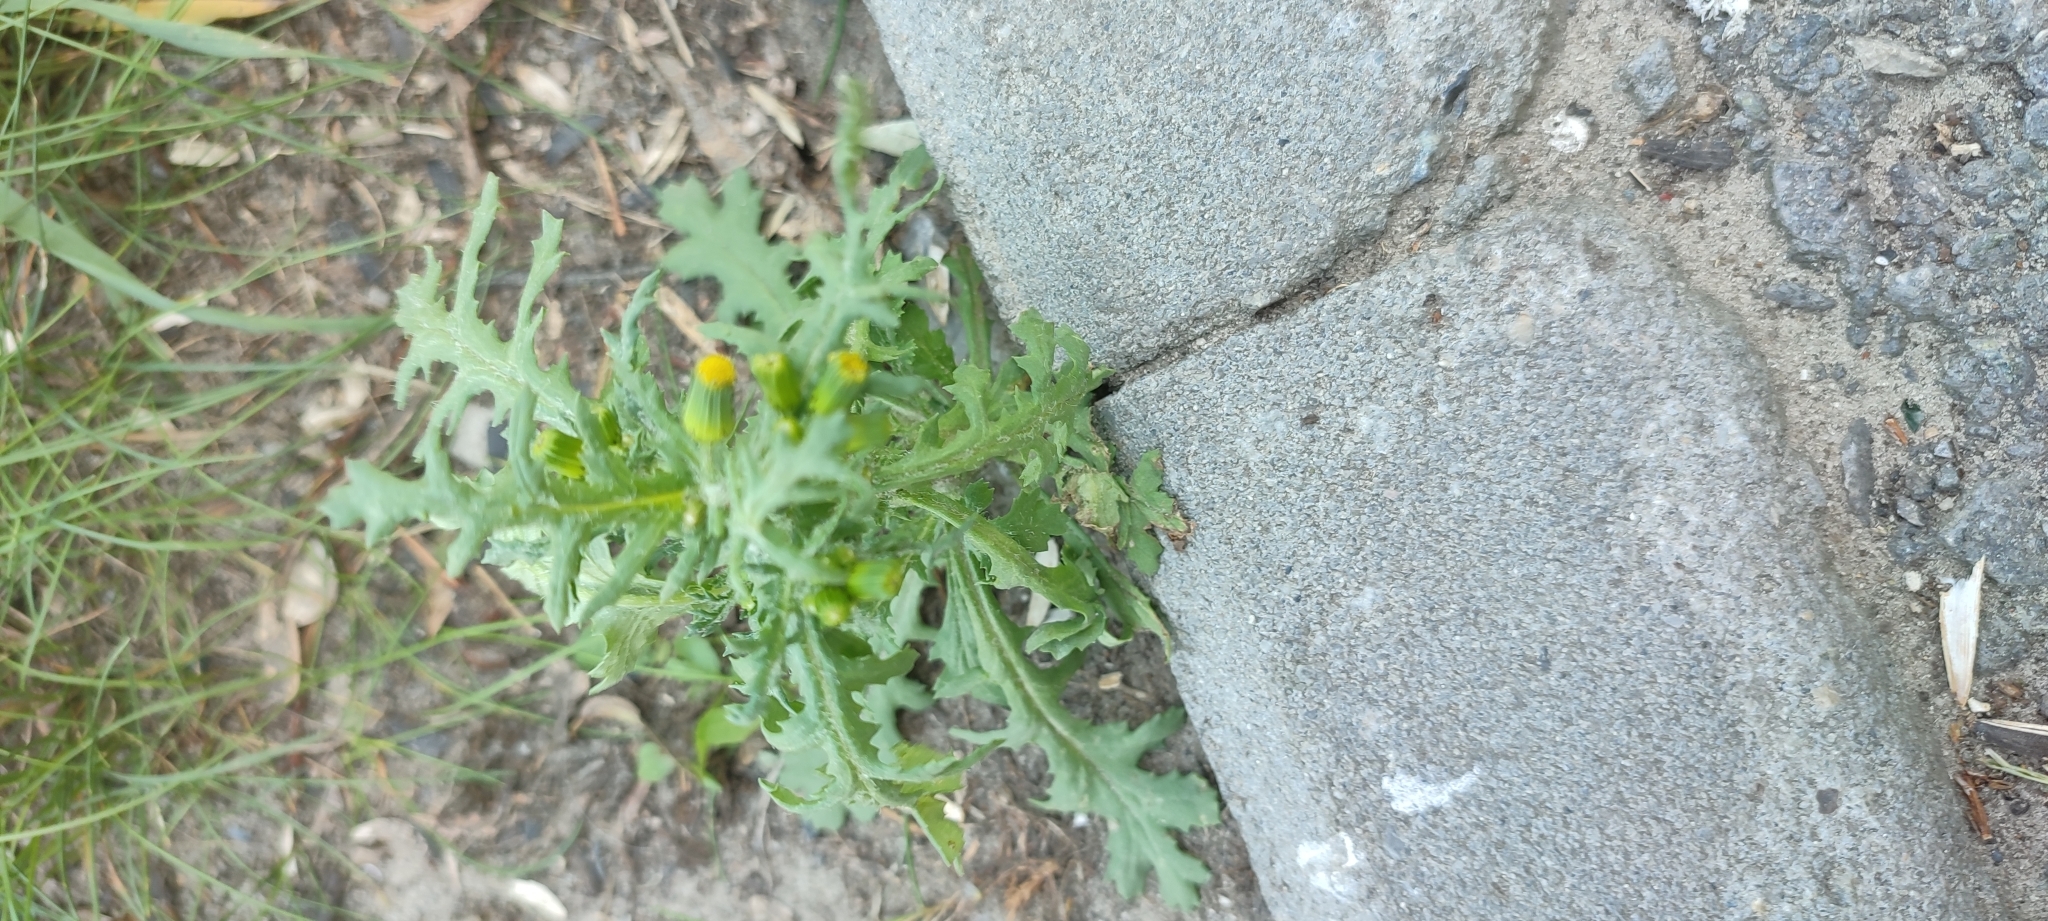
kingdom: Plantae
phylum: Tracheophyta
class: Magnoliopsida
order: Asterales
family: Asteraceae
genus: Senecio
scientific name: Senecio vulgaris
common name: Old-man-in-the-spring
